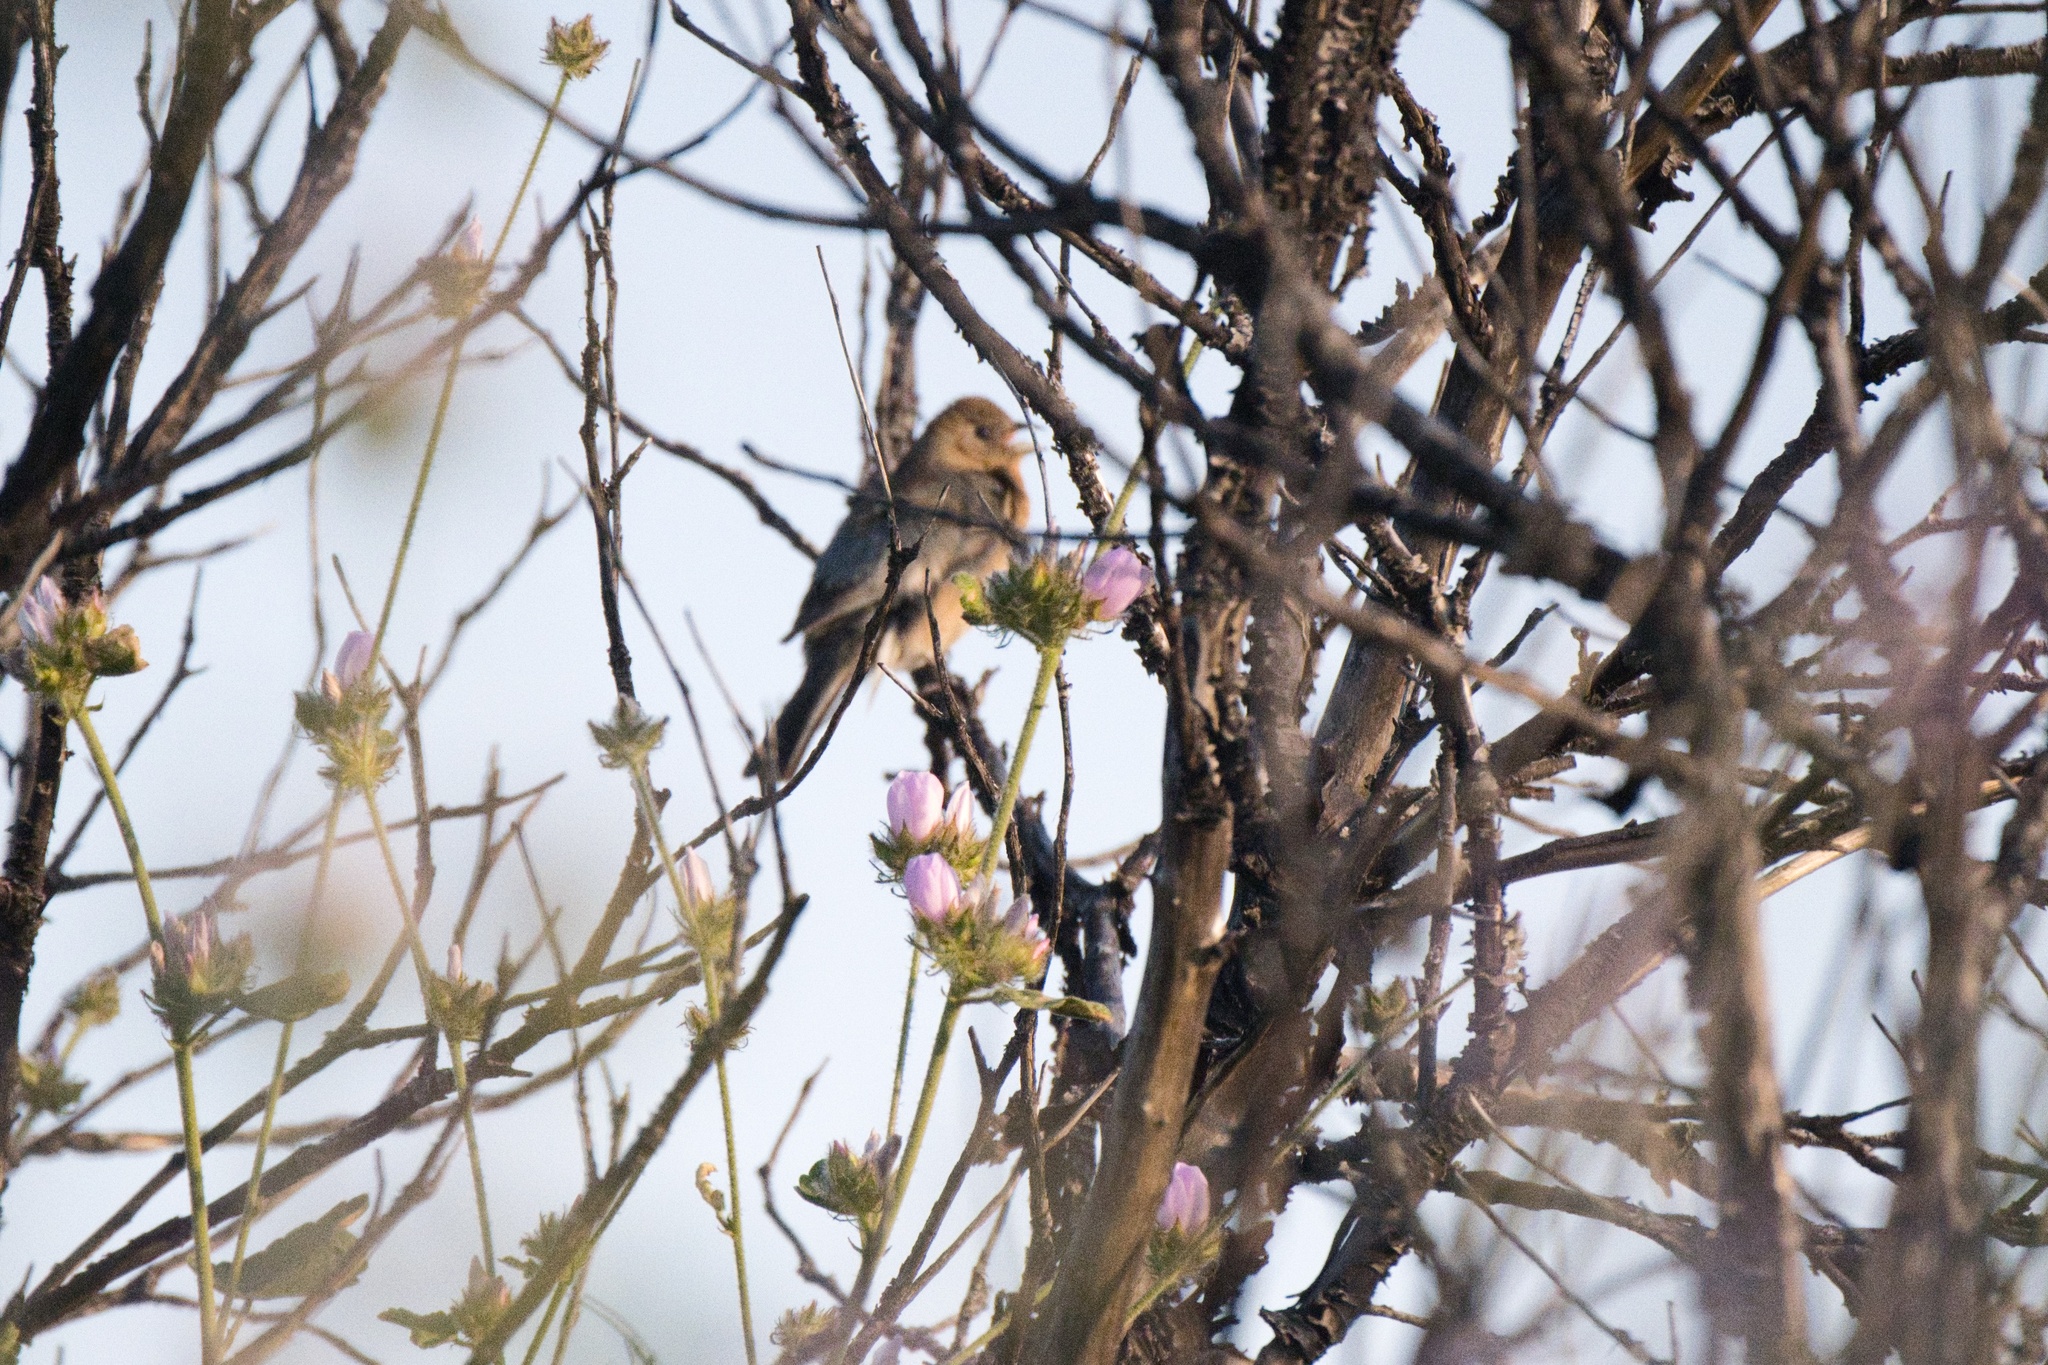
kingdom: Animalia
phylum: Chordata
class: Aves
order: Passeriformes
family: Cardinalidae
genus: Passerina
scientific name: Passerina amoena
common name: Lazuli bunting
